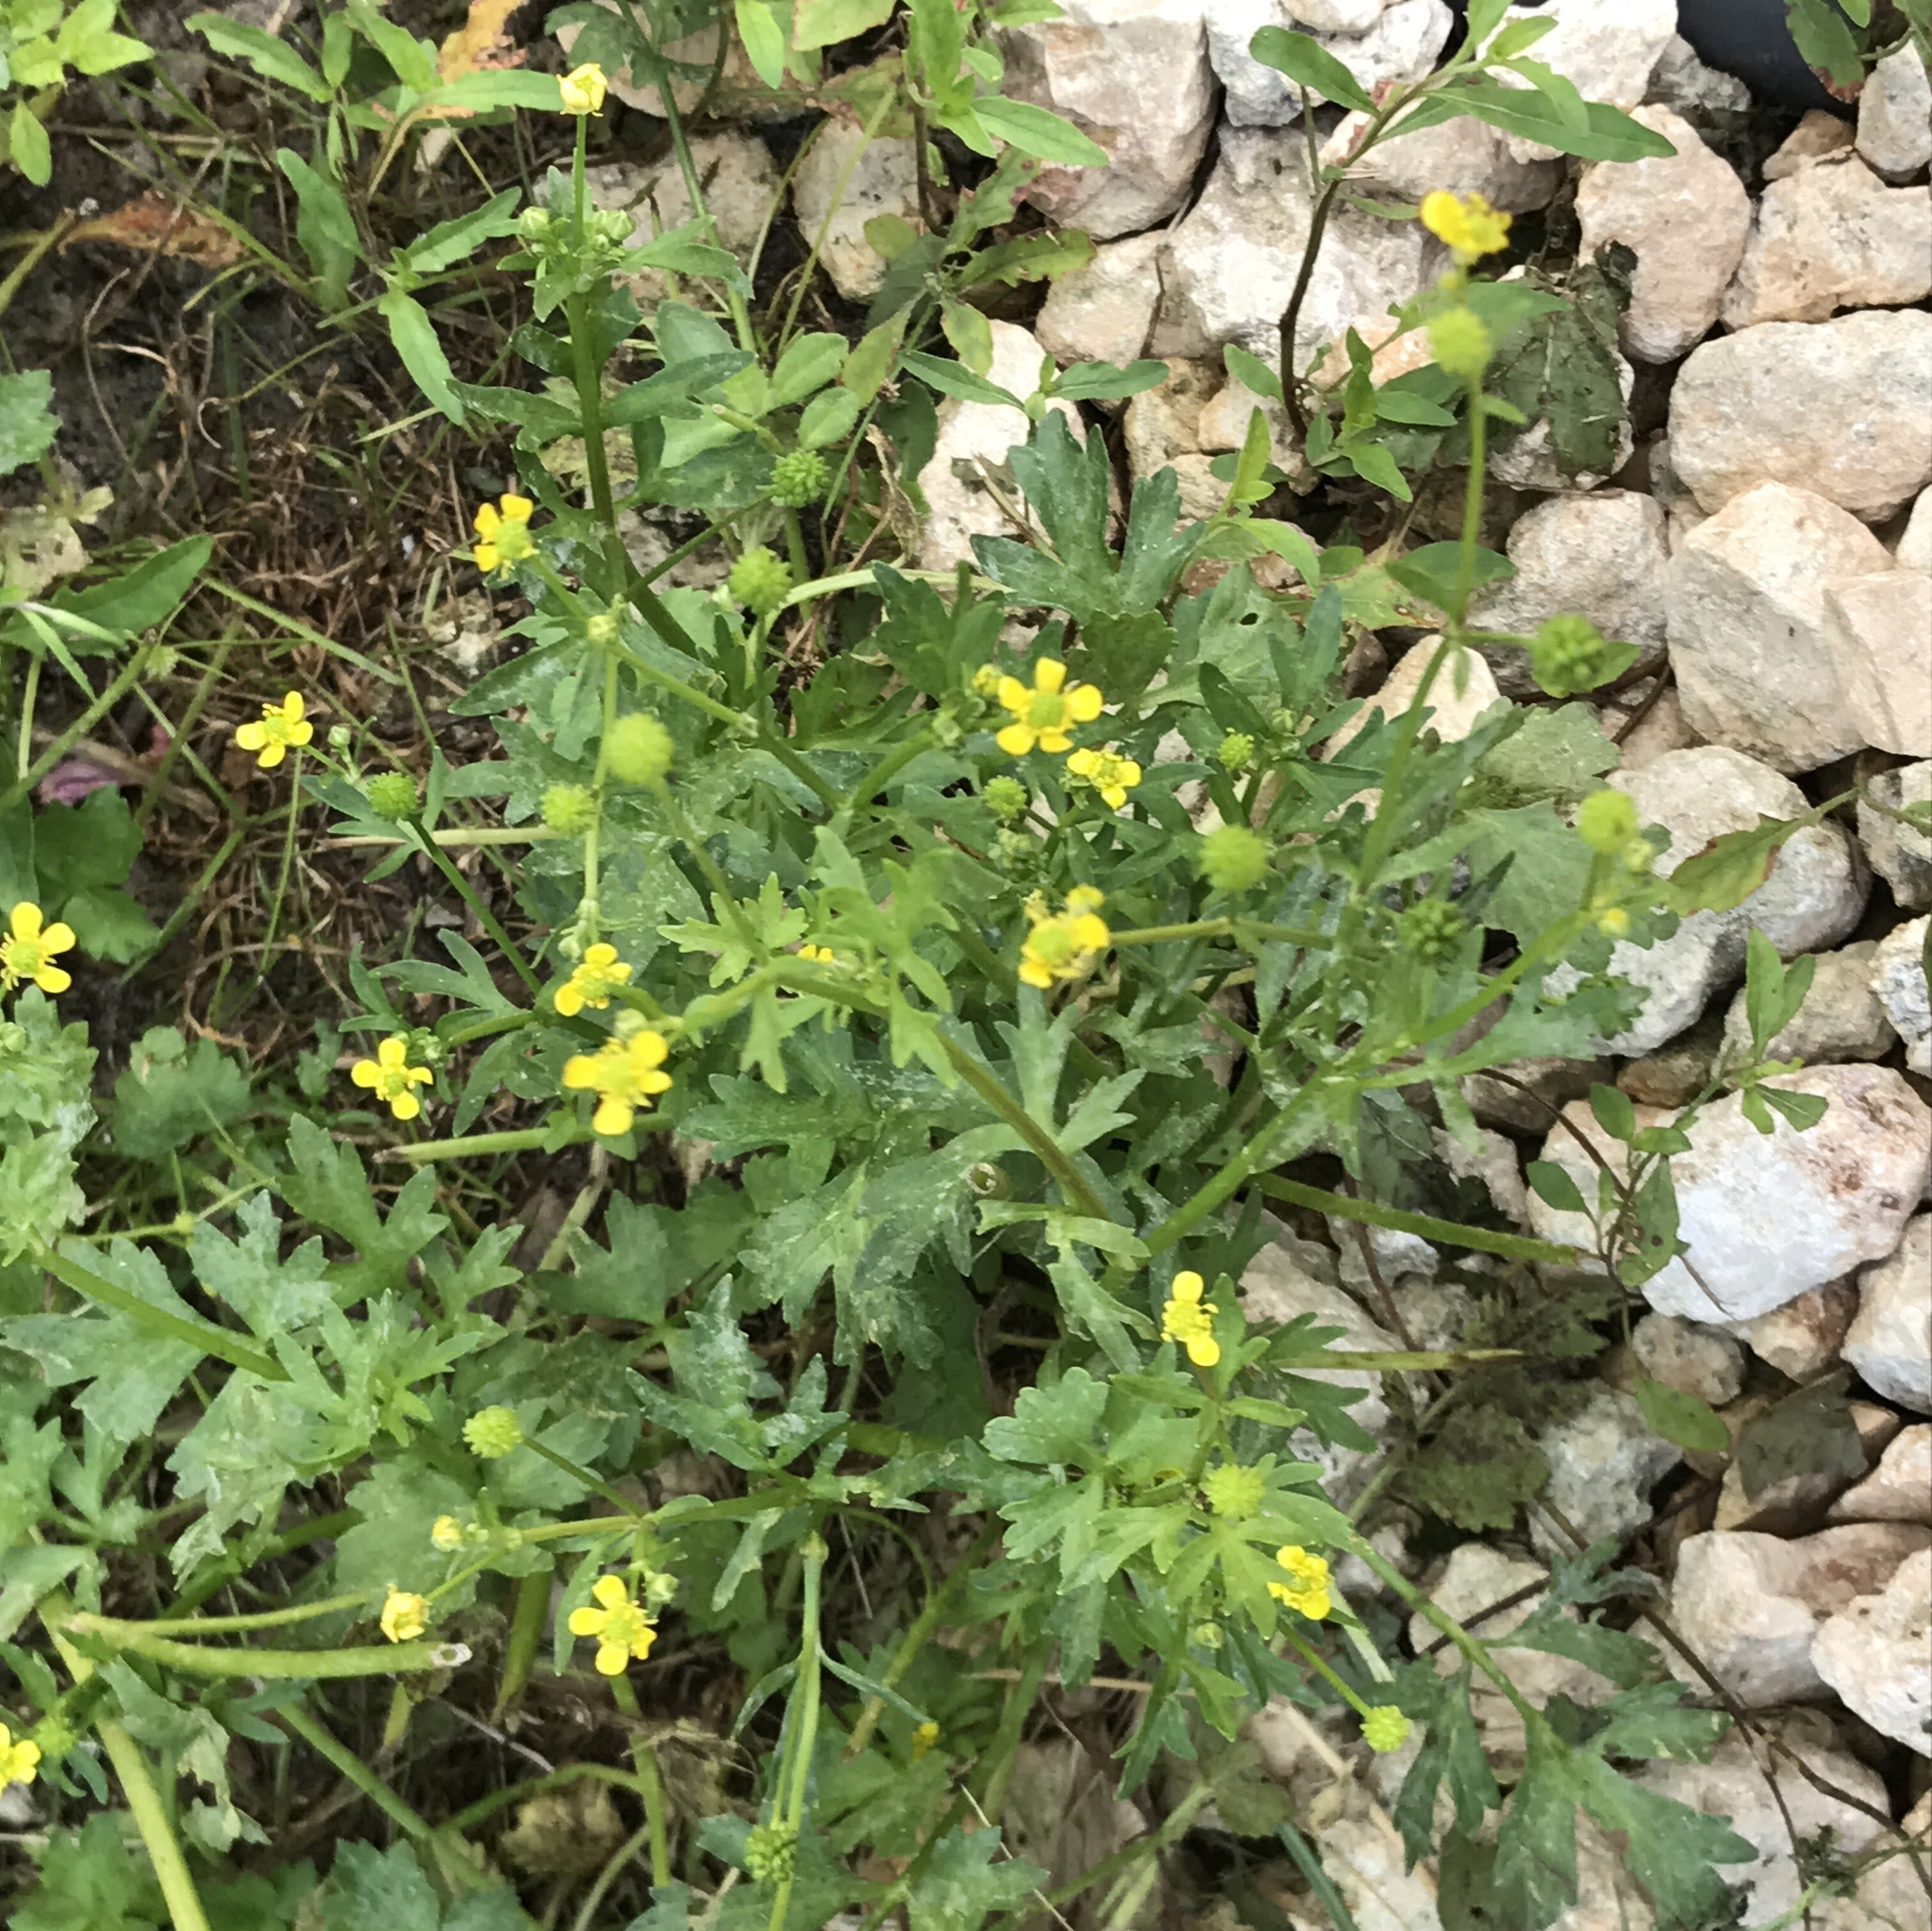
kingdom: Plantae
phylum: Tracheophyta
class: Magnoliopsida
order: Ranunculales
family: Ranunculaceae
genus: Ranunculus
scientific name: Ranunculus fascicularis
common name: Early buttercup
